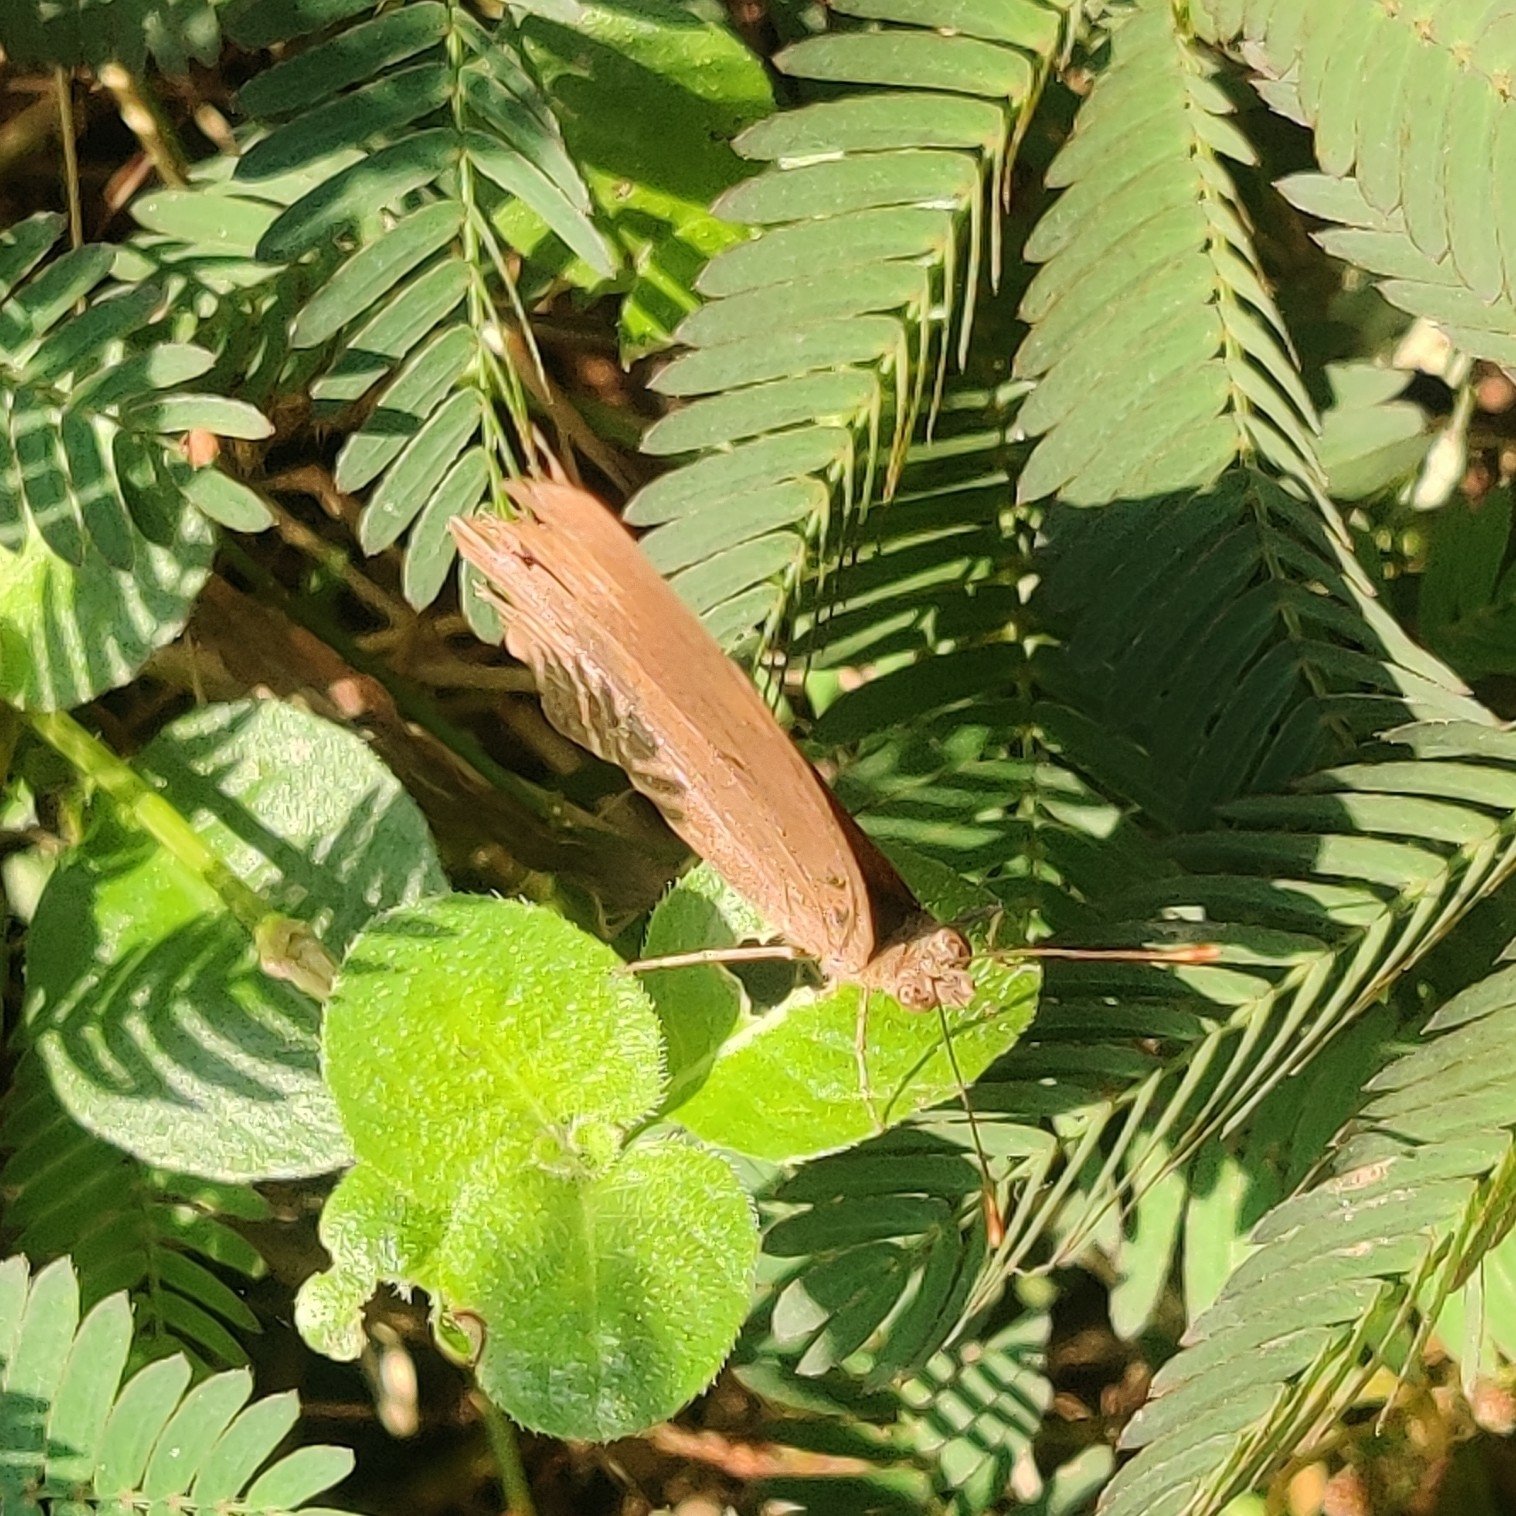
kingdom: Animalia
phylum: Arthropoda
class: Insecta
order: Lepidoptera
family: Nymphalidae
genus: Junonia
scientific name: Junonia iphita
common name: Chocolate pansy
